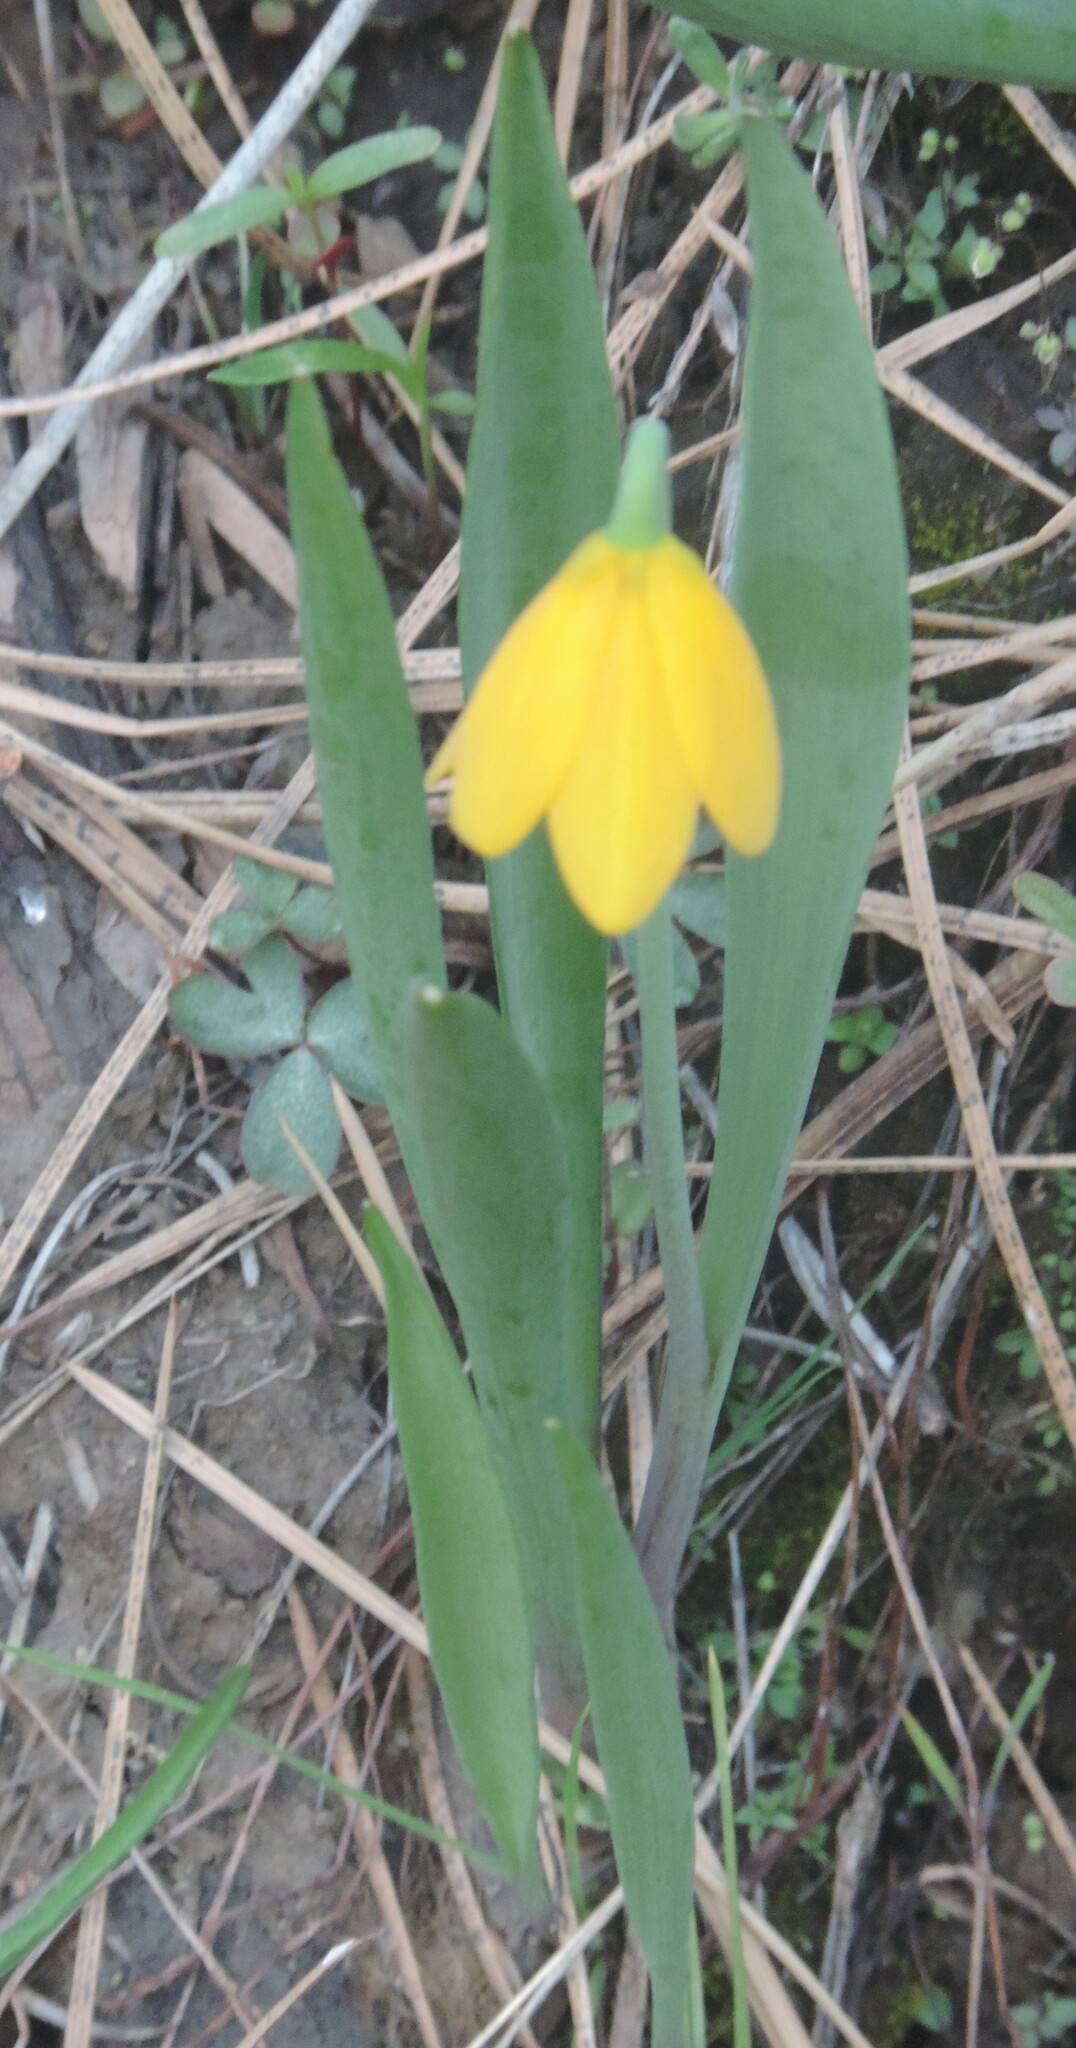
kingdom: Plantae
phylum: Tracheophyta
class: Liliopsida
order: Liliales
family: Liliaceae
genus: Fritillaria
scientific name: Fritillaria pudica
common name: Yellow fritillary
